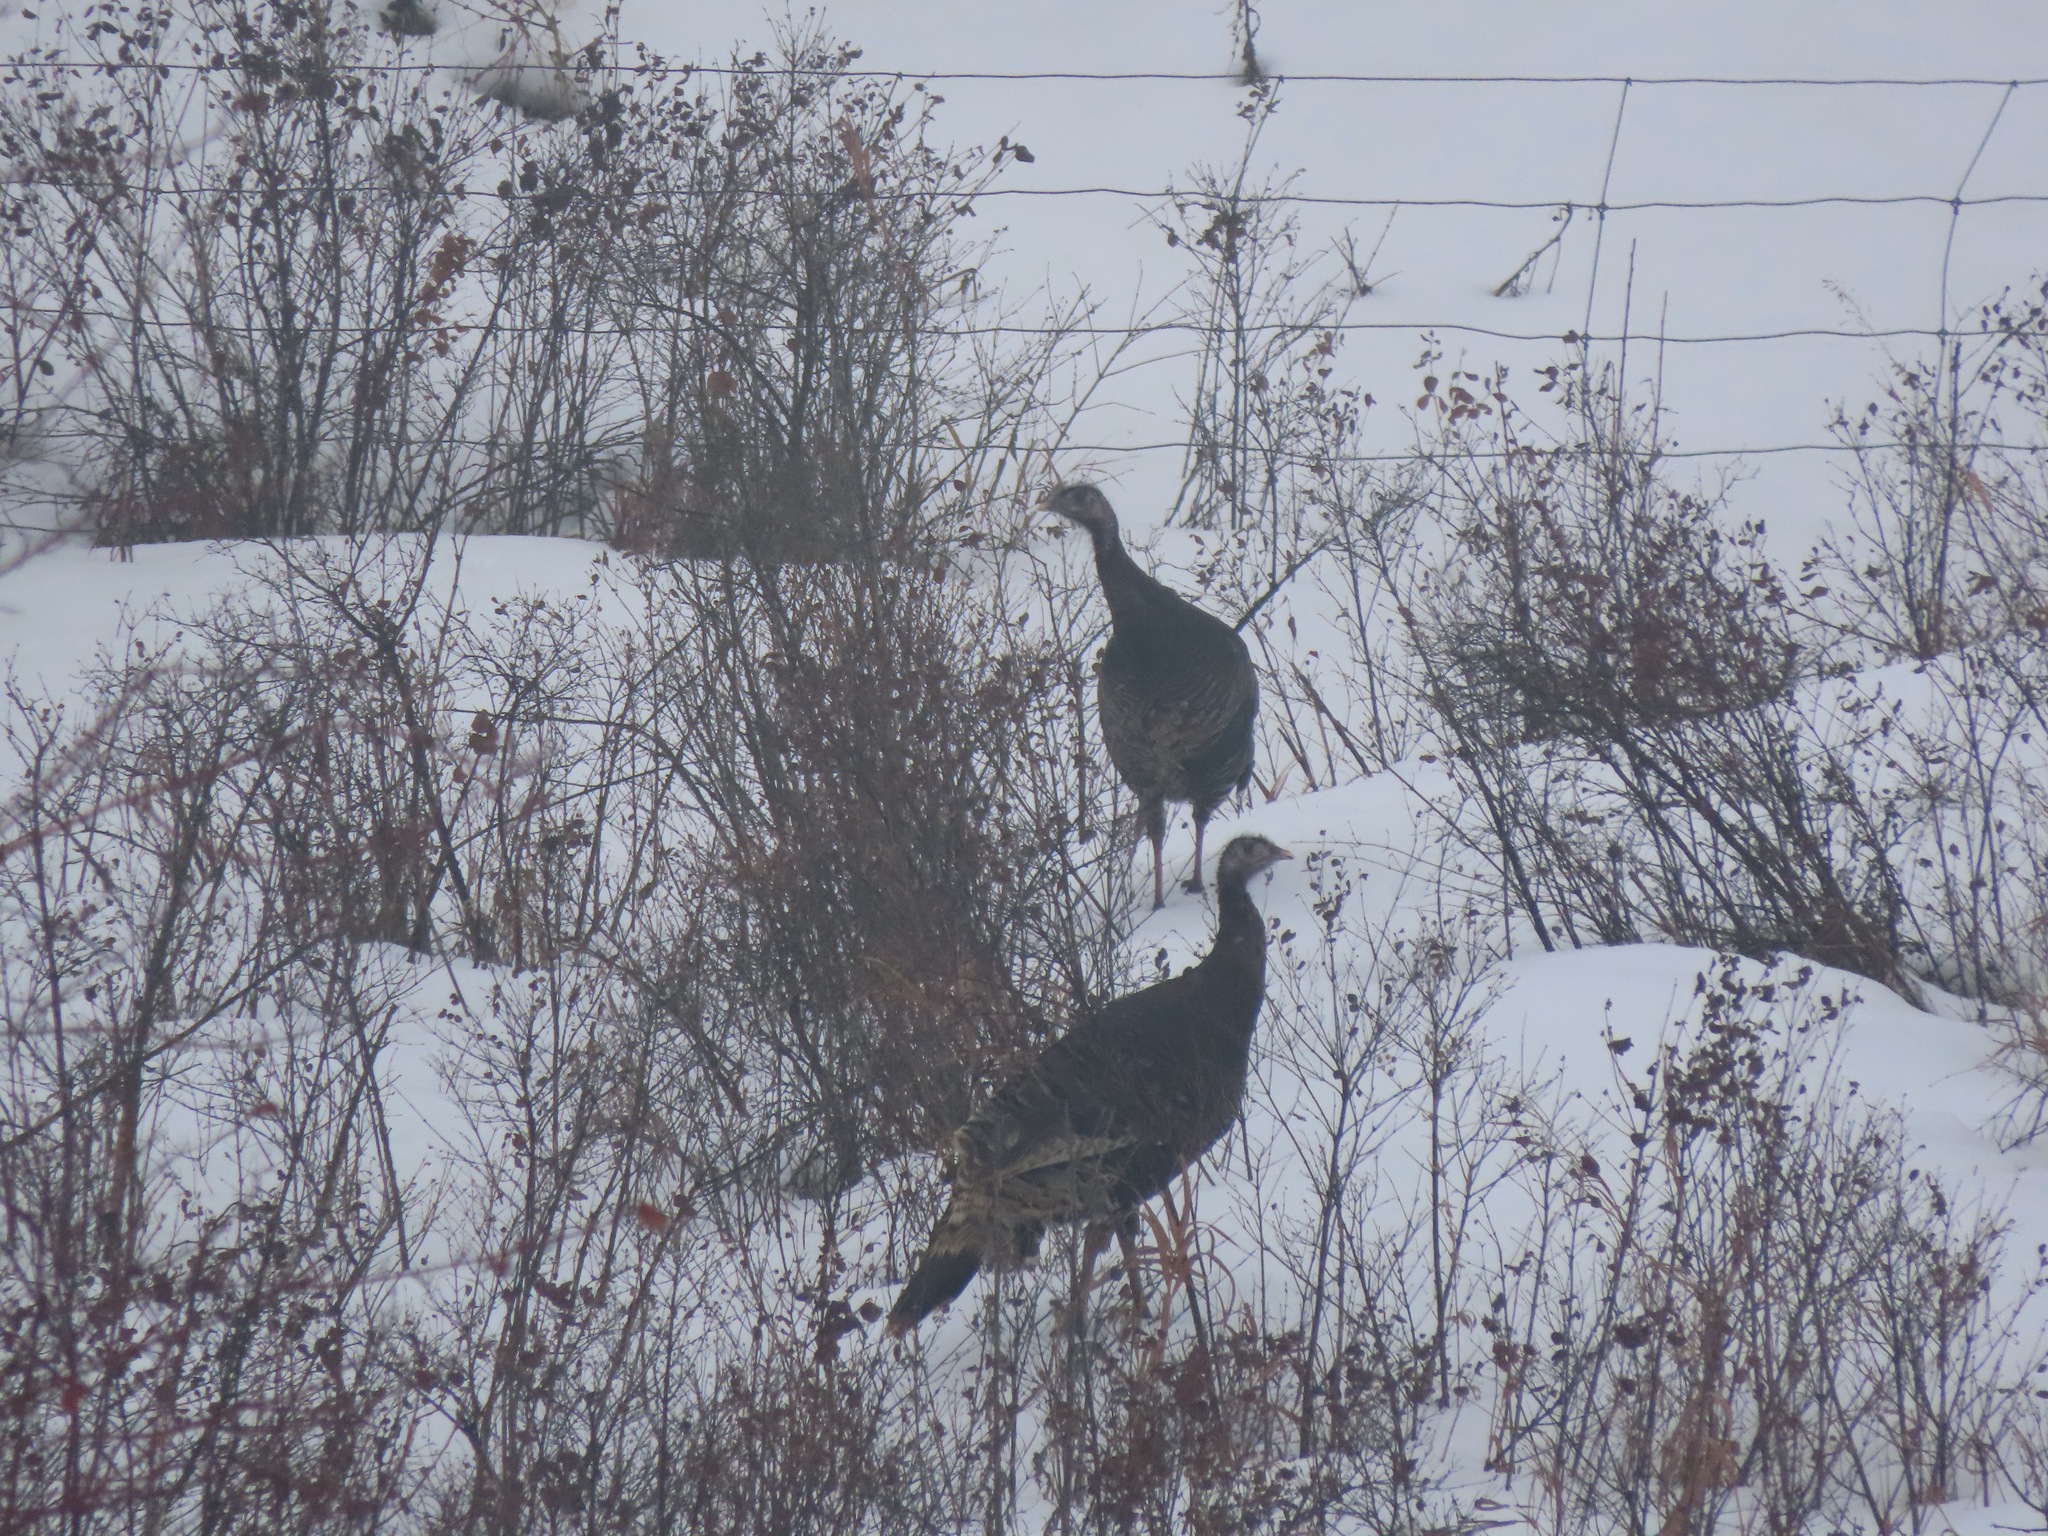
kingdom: Animalia
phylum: Chordata
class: Aves
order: Galliformes
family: Phasianidae
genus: Meleagris
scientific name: Meleagris gallopavo
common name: Wild turkey
